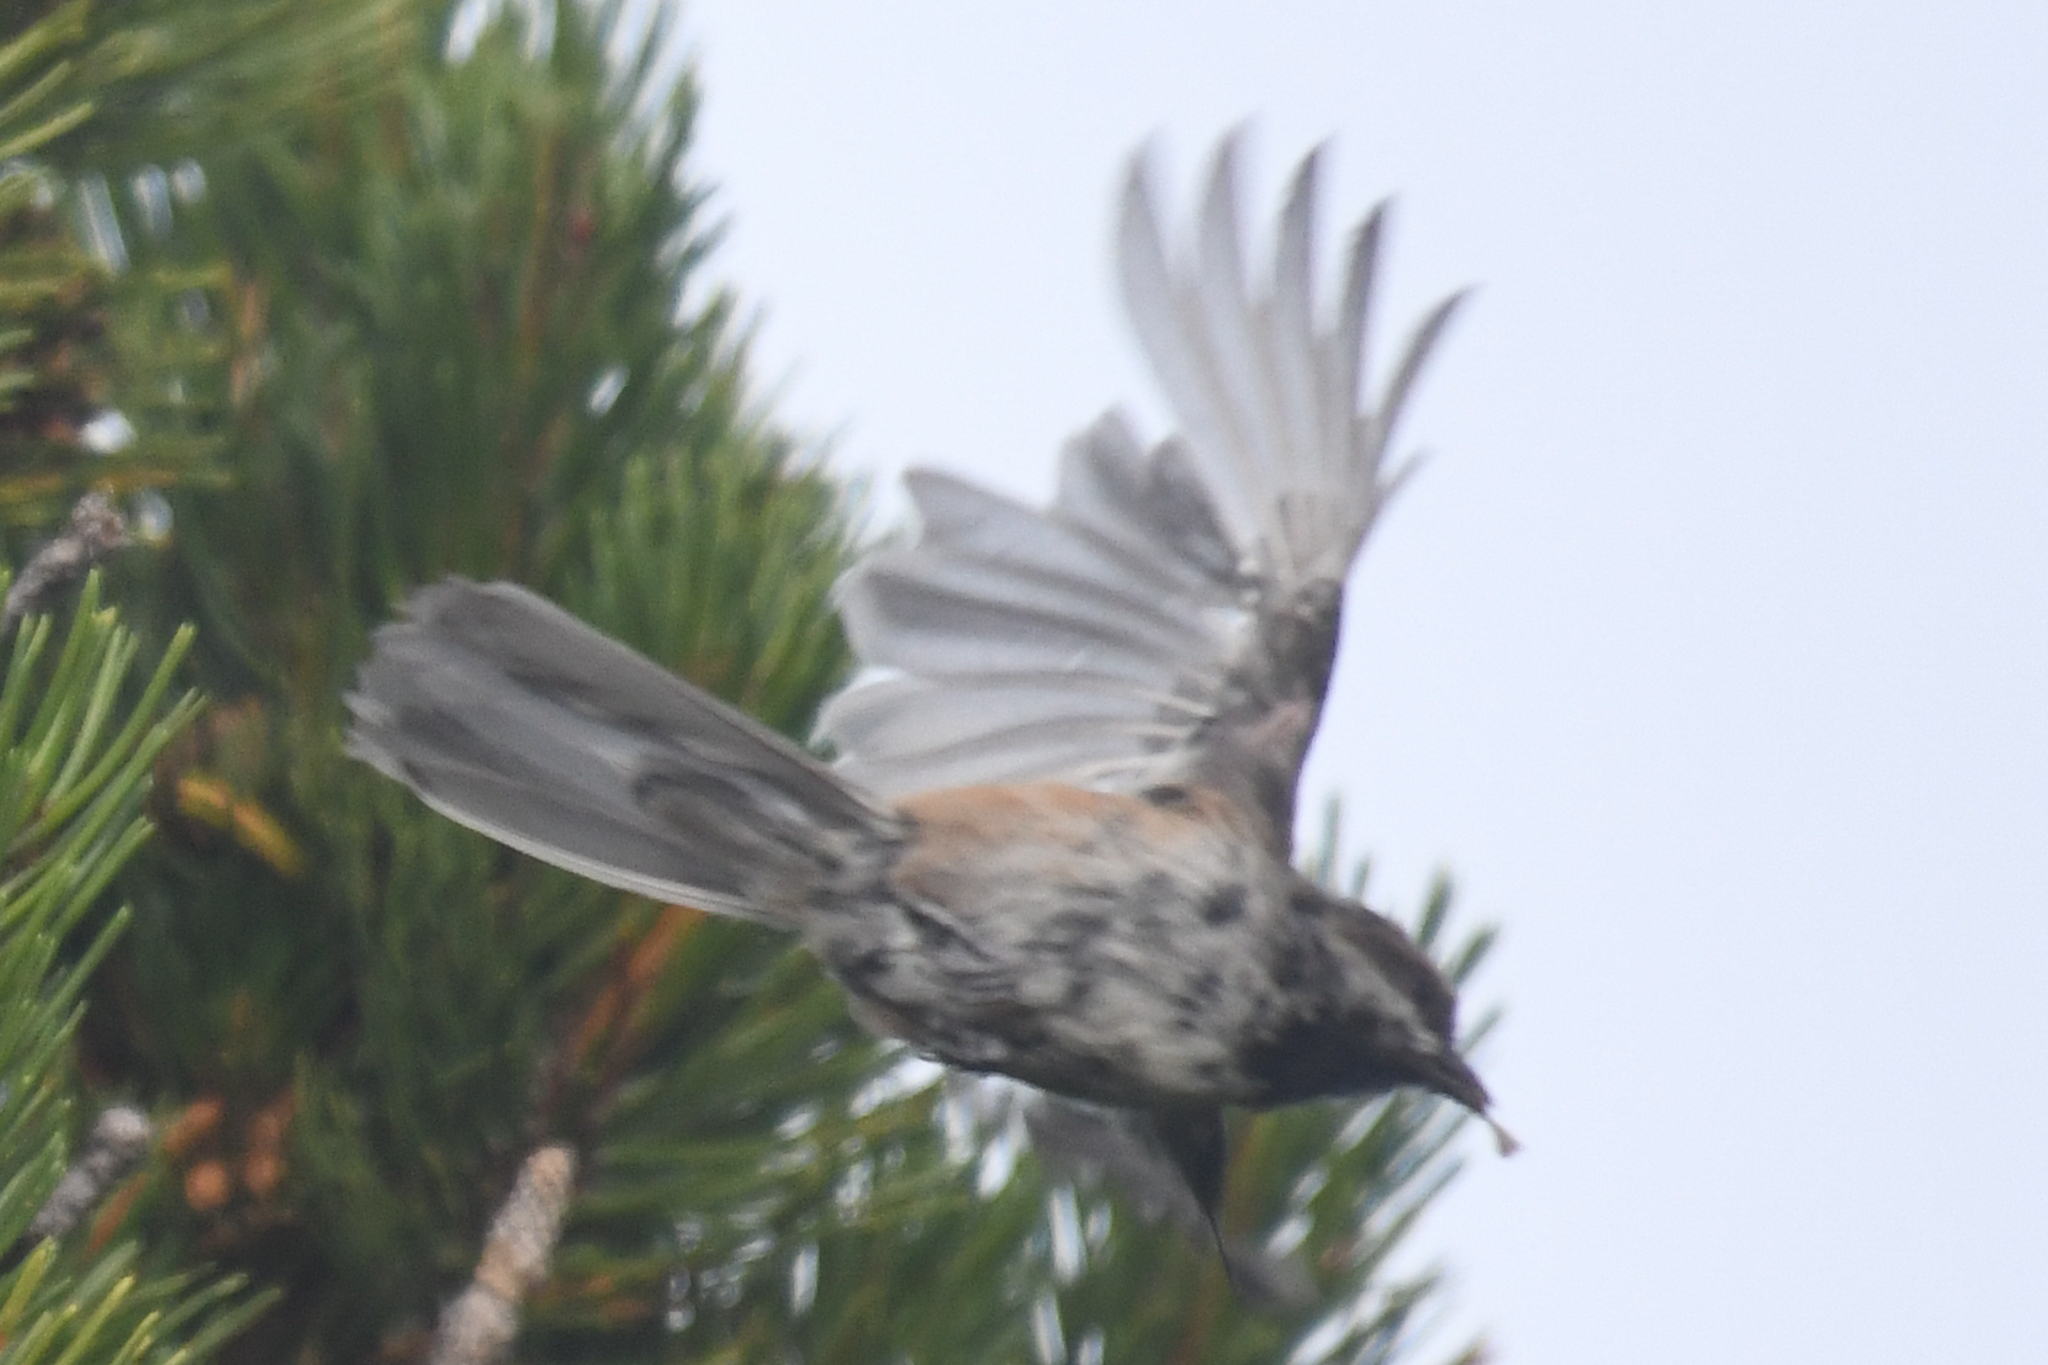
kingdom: Animalia
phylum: Chordata
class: Aves
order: Passeriformes
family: Paridae
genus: Poecile
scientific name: Poecile hudsonicus
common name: Boreal chickadee
